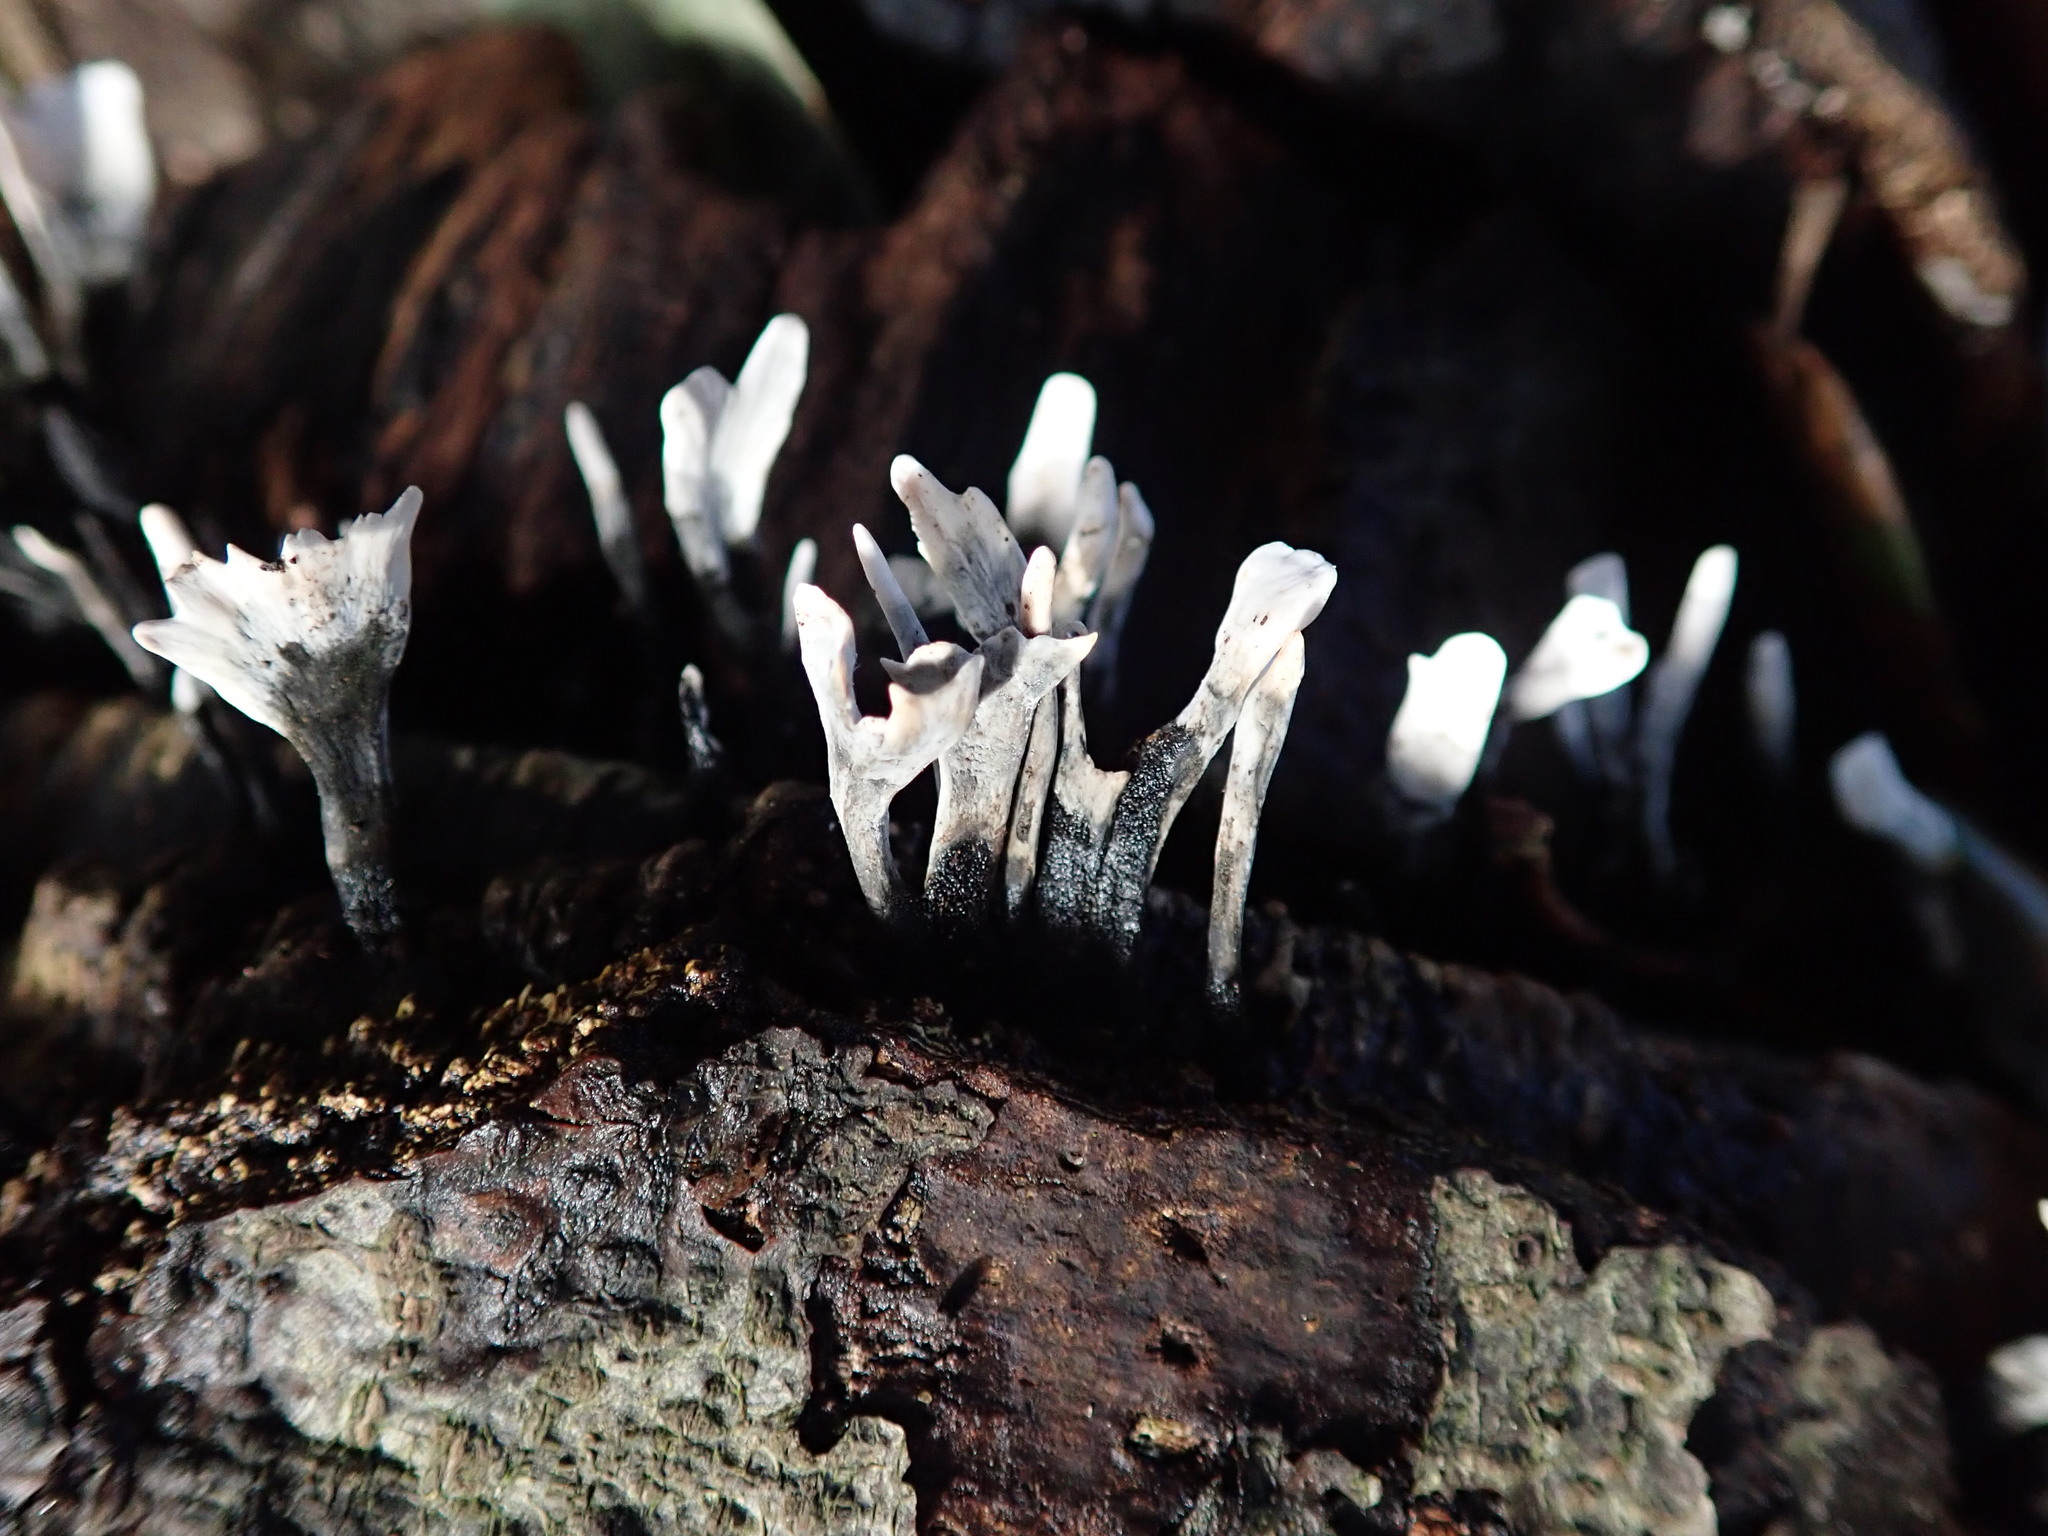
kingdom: Fungi
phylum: Ascomycota
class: Sordariomycetes
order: Xylariales
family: Xylariaceae
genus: Xylaria
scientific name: Xylaria hypoxylon
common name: Candle-snuff fungus
